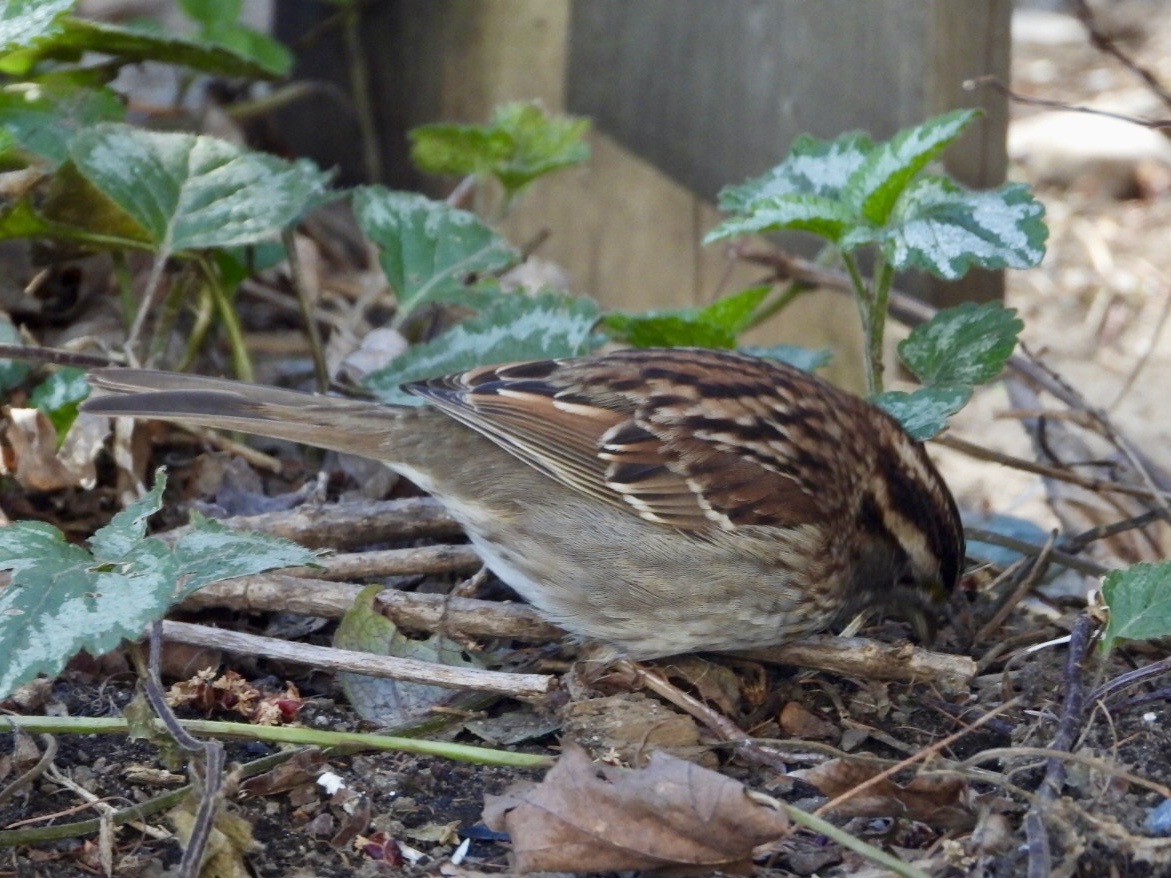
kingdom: Animalia
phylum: Chordata
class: Aves
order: Passeriformes
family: Passerellidae
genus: Zonotrichia
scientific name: Zonotrichia albicollis
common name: White-throated sparrow
